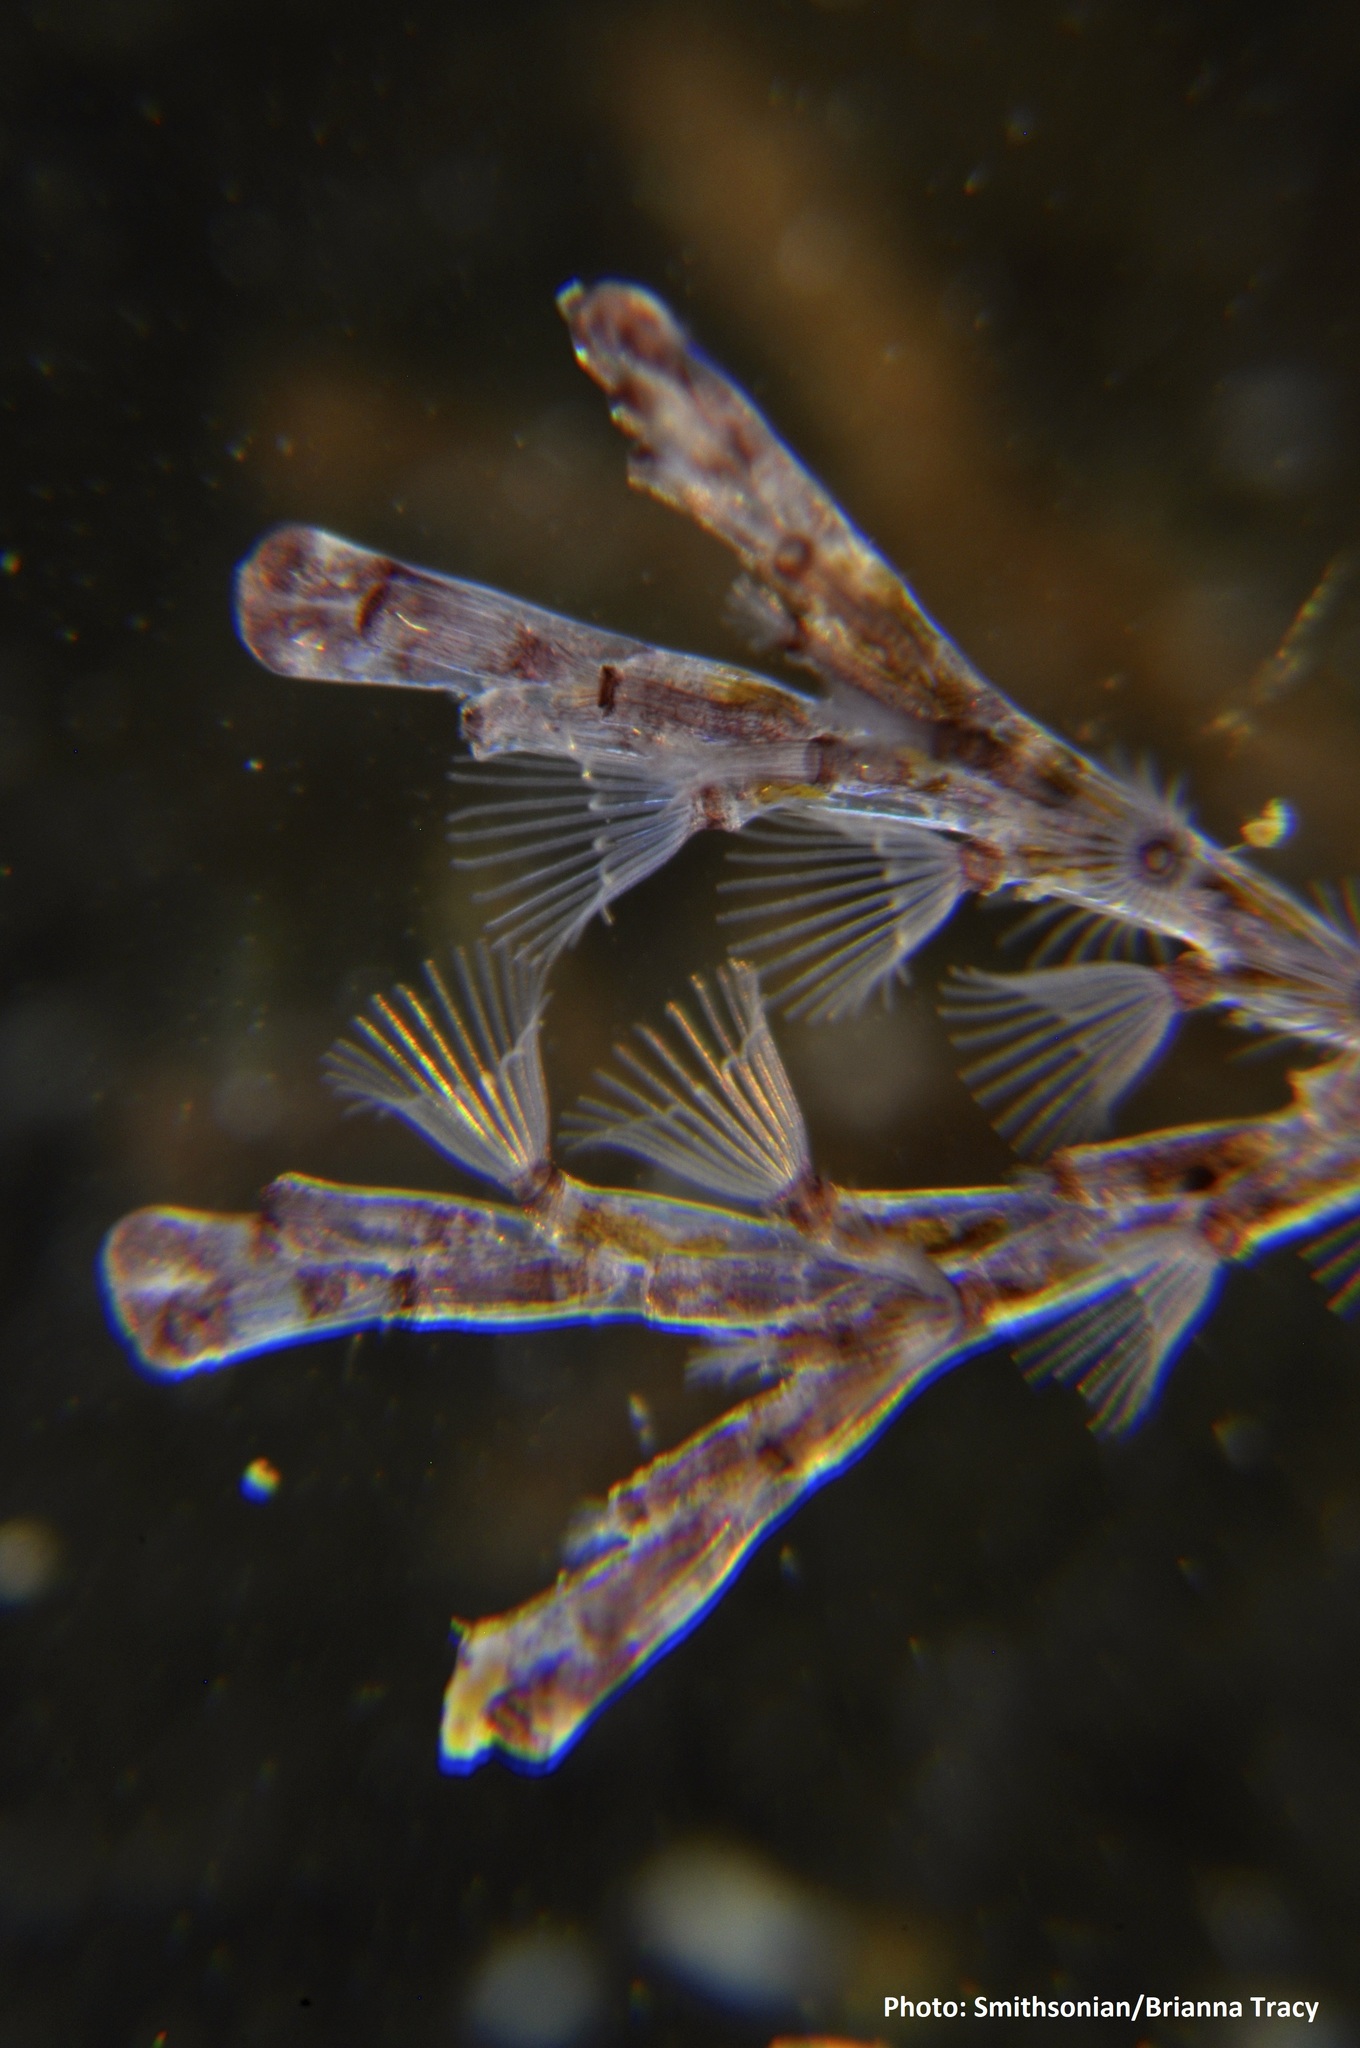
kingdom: Animalia
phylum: Bryozoa
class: Gymnolaemata
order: Cheilostomatida
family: Bugulidae
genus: Bugula
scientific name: Bugula neritina
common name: Brown bryozoan
